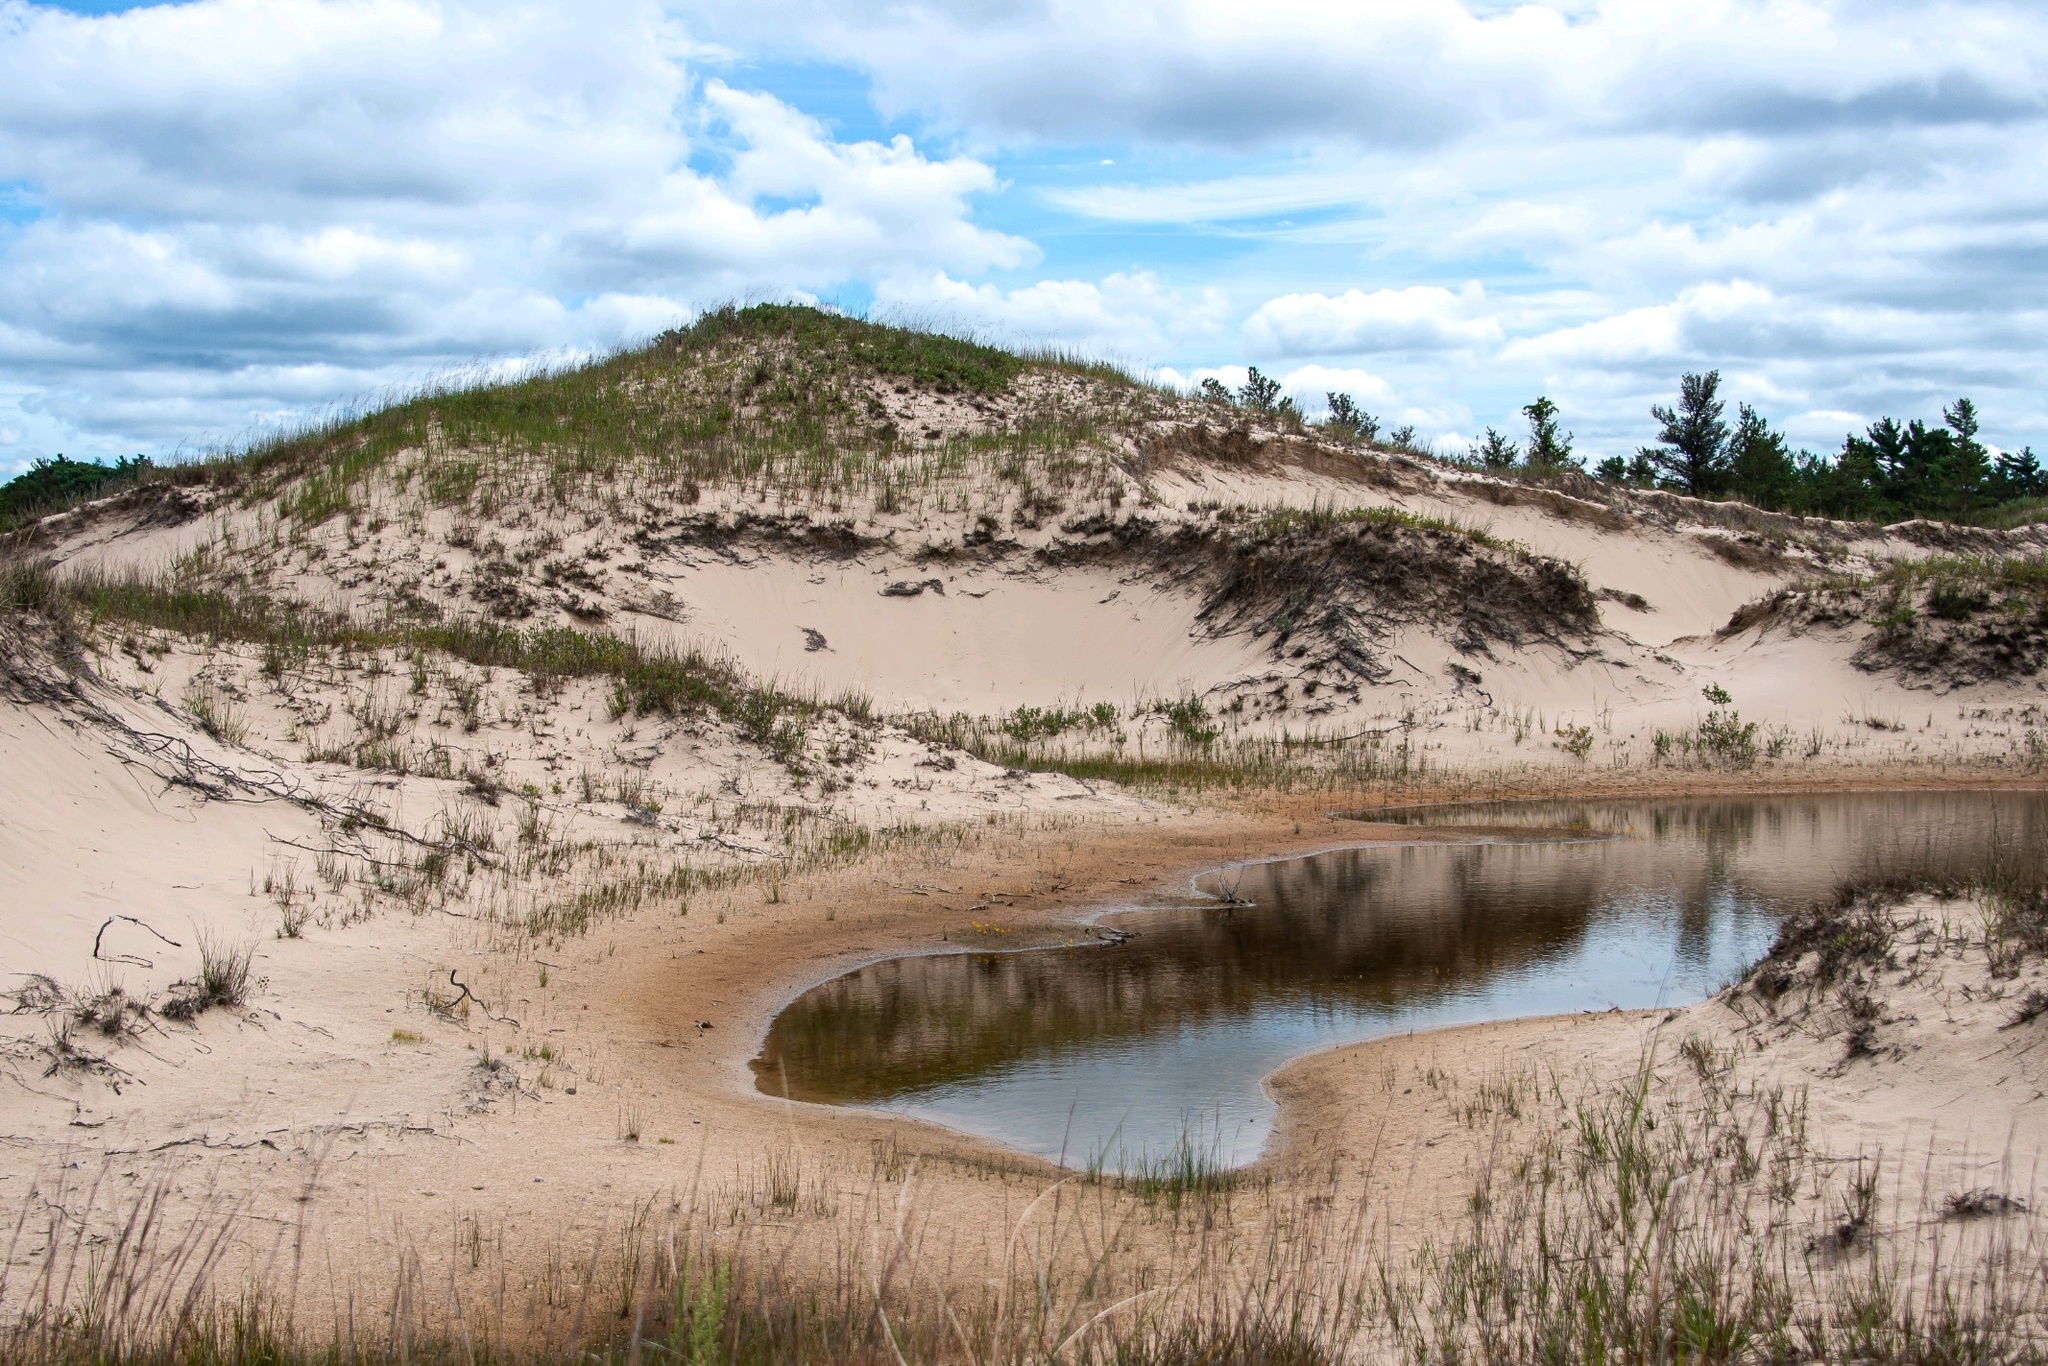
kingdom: Plantae
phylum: Tracheophyta
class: Magnoliopsida
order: Lamiales
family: Lentibulariaceae
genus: Utricularia
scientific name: Utricularia cornuta
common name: Horned bladderwort
